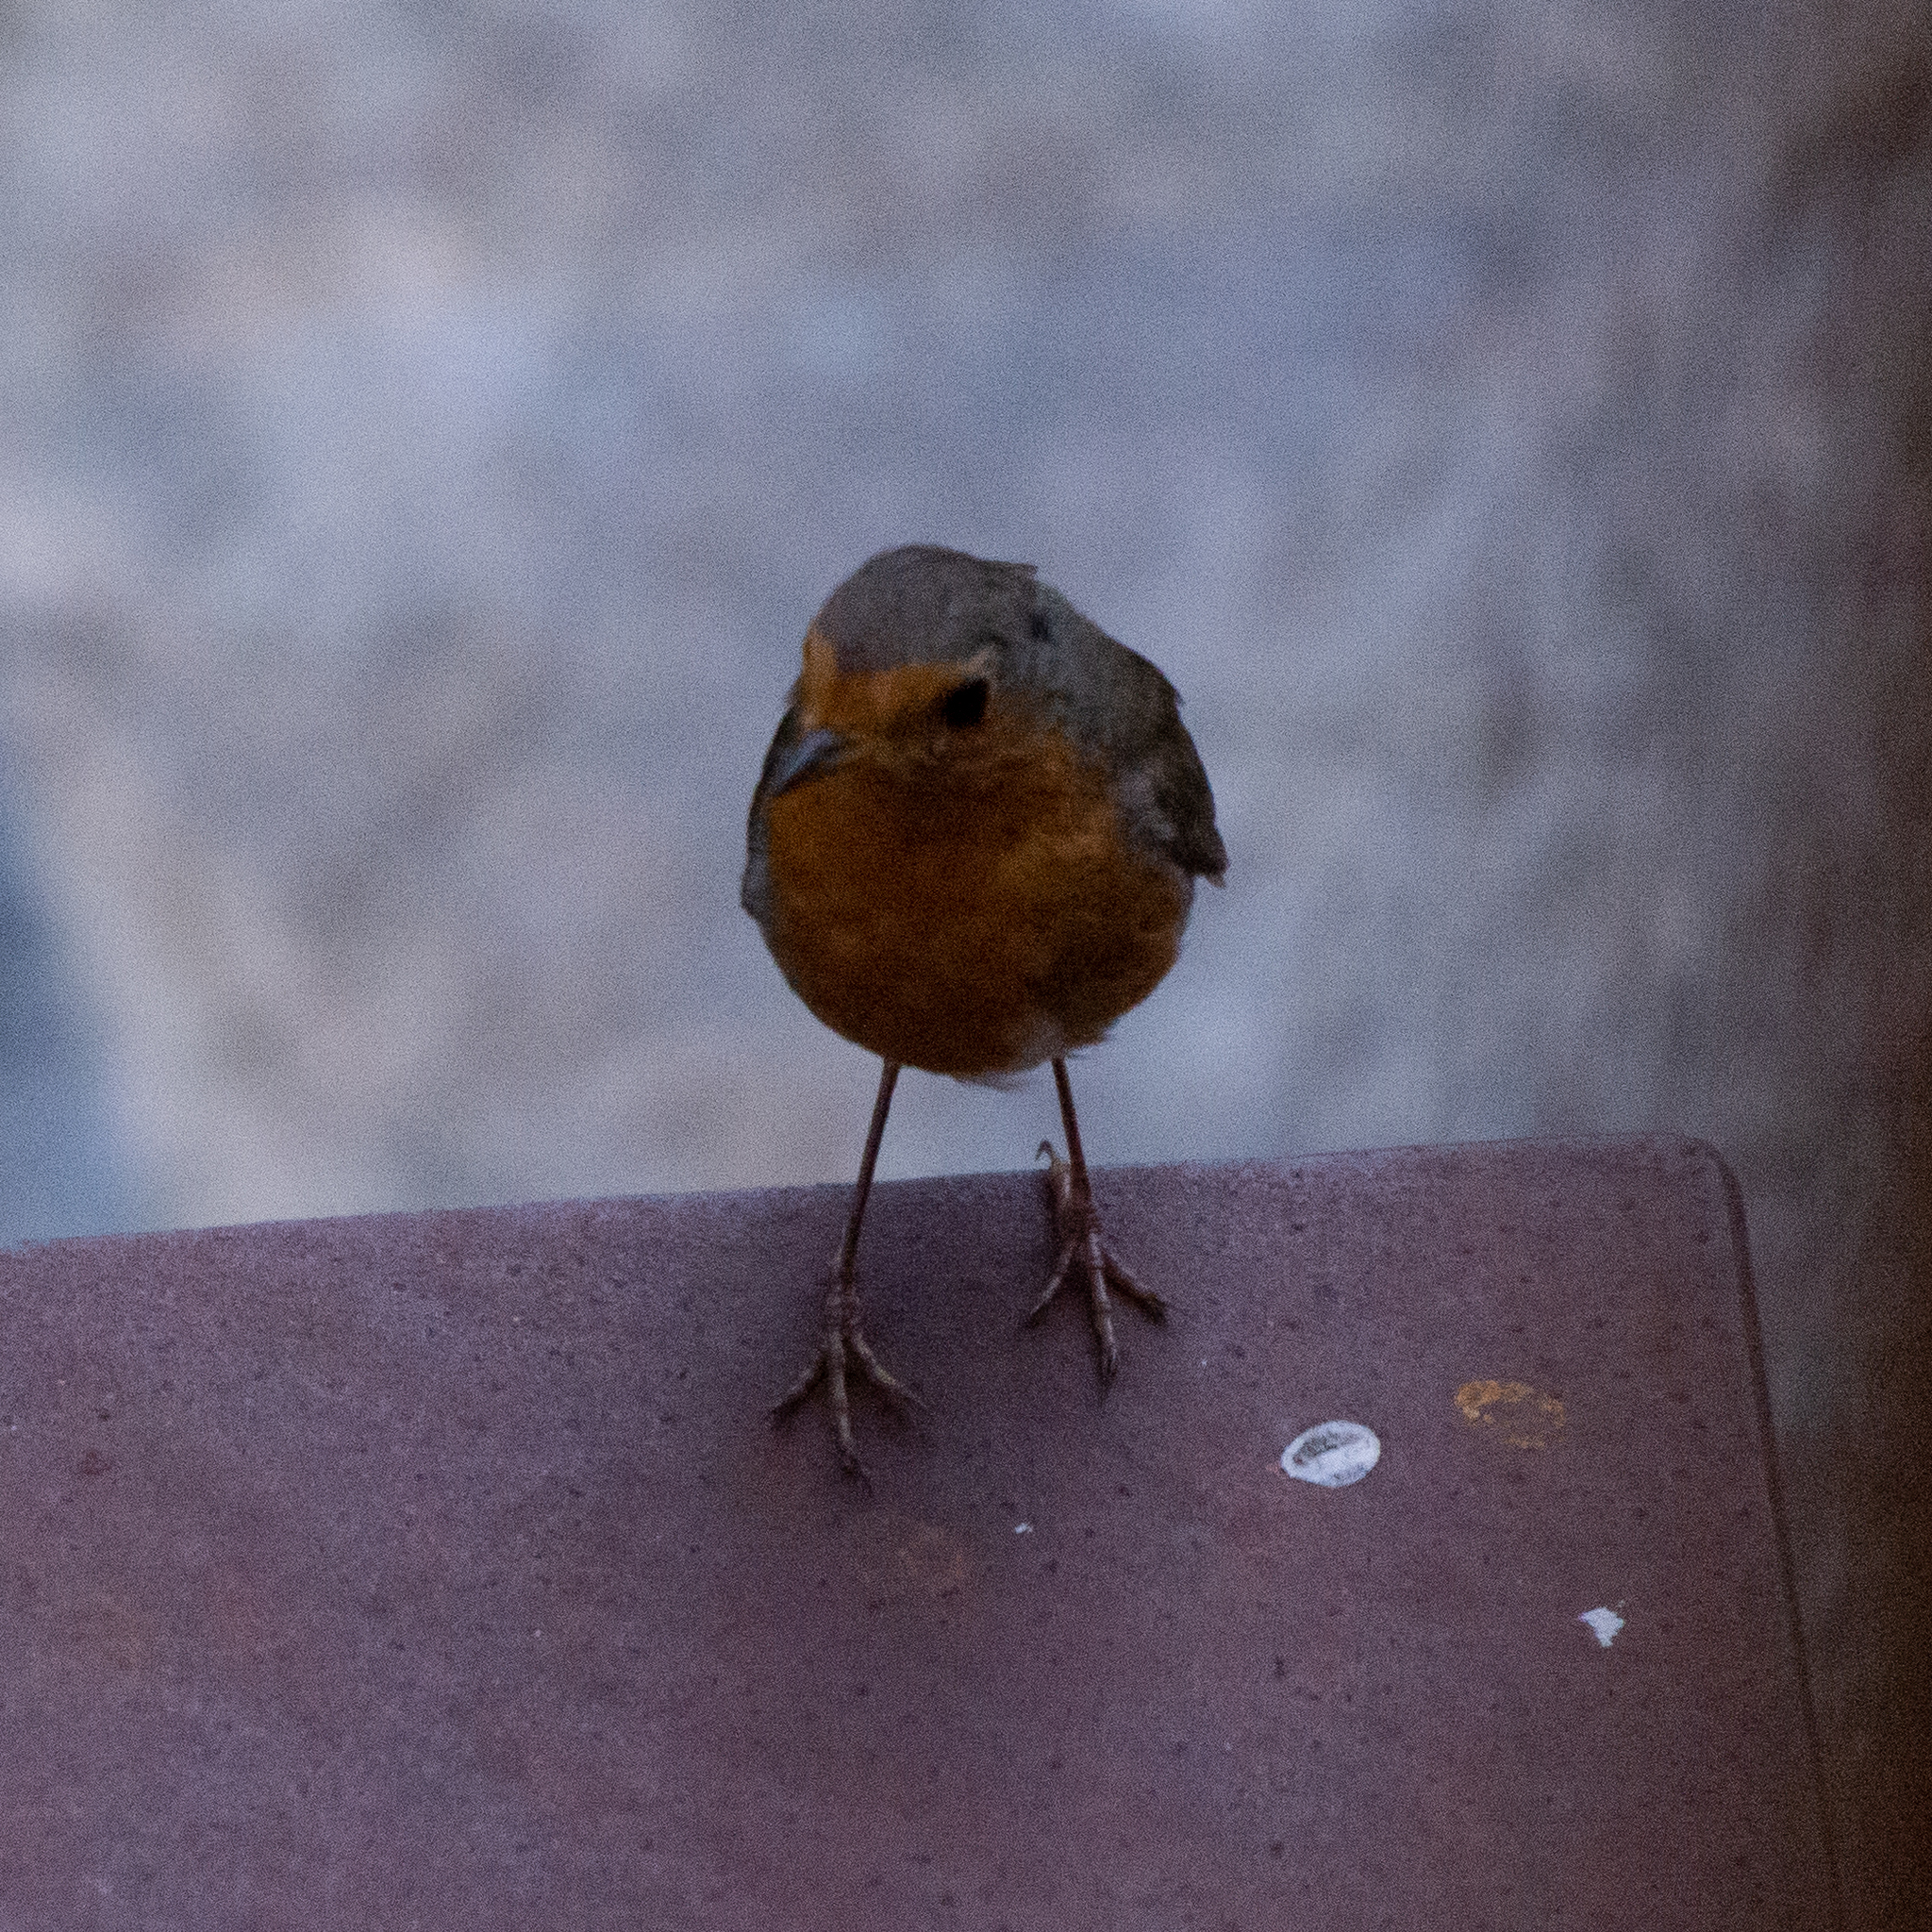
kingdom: Animalia
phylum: Chordata
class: Aves
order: Passeriformes
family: Muscicapidae
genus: Erithacus
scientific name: Erithacus rubecula
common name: European robin
